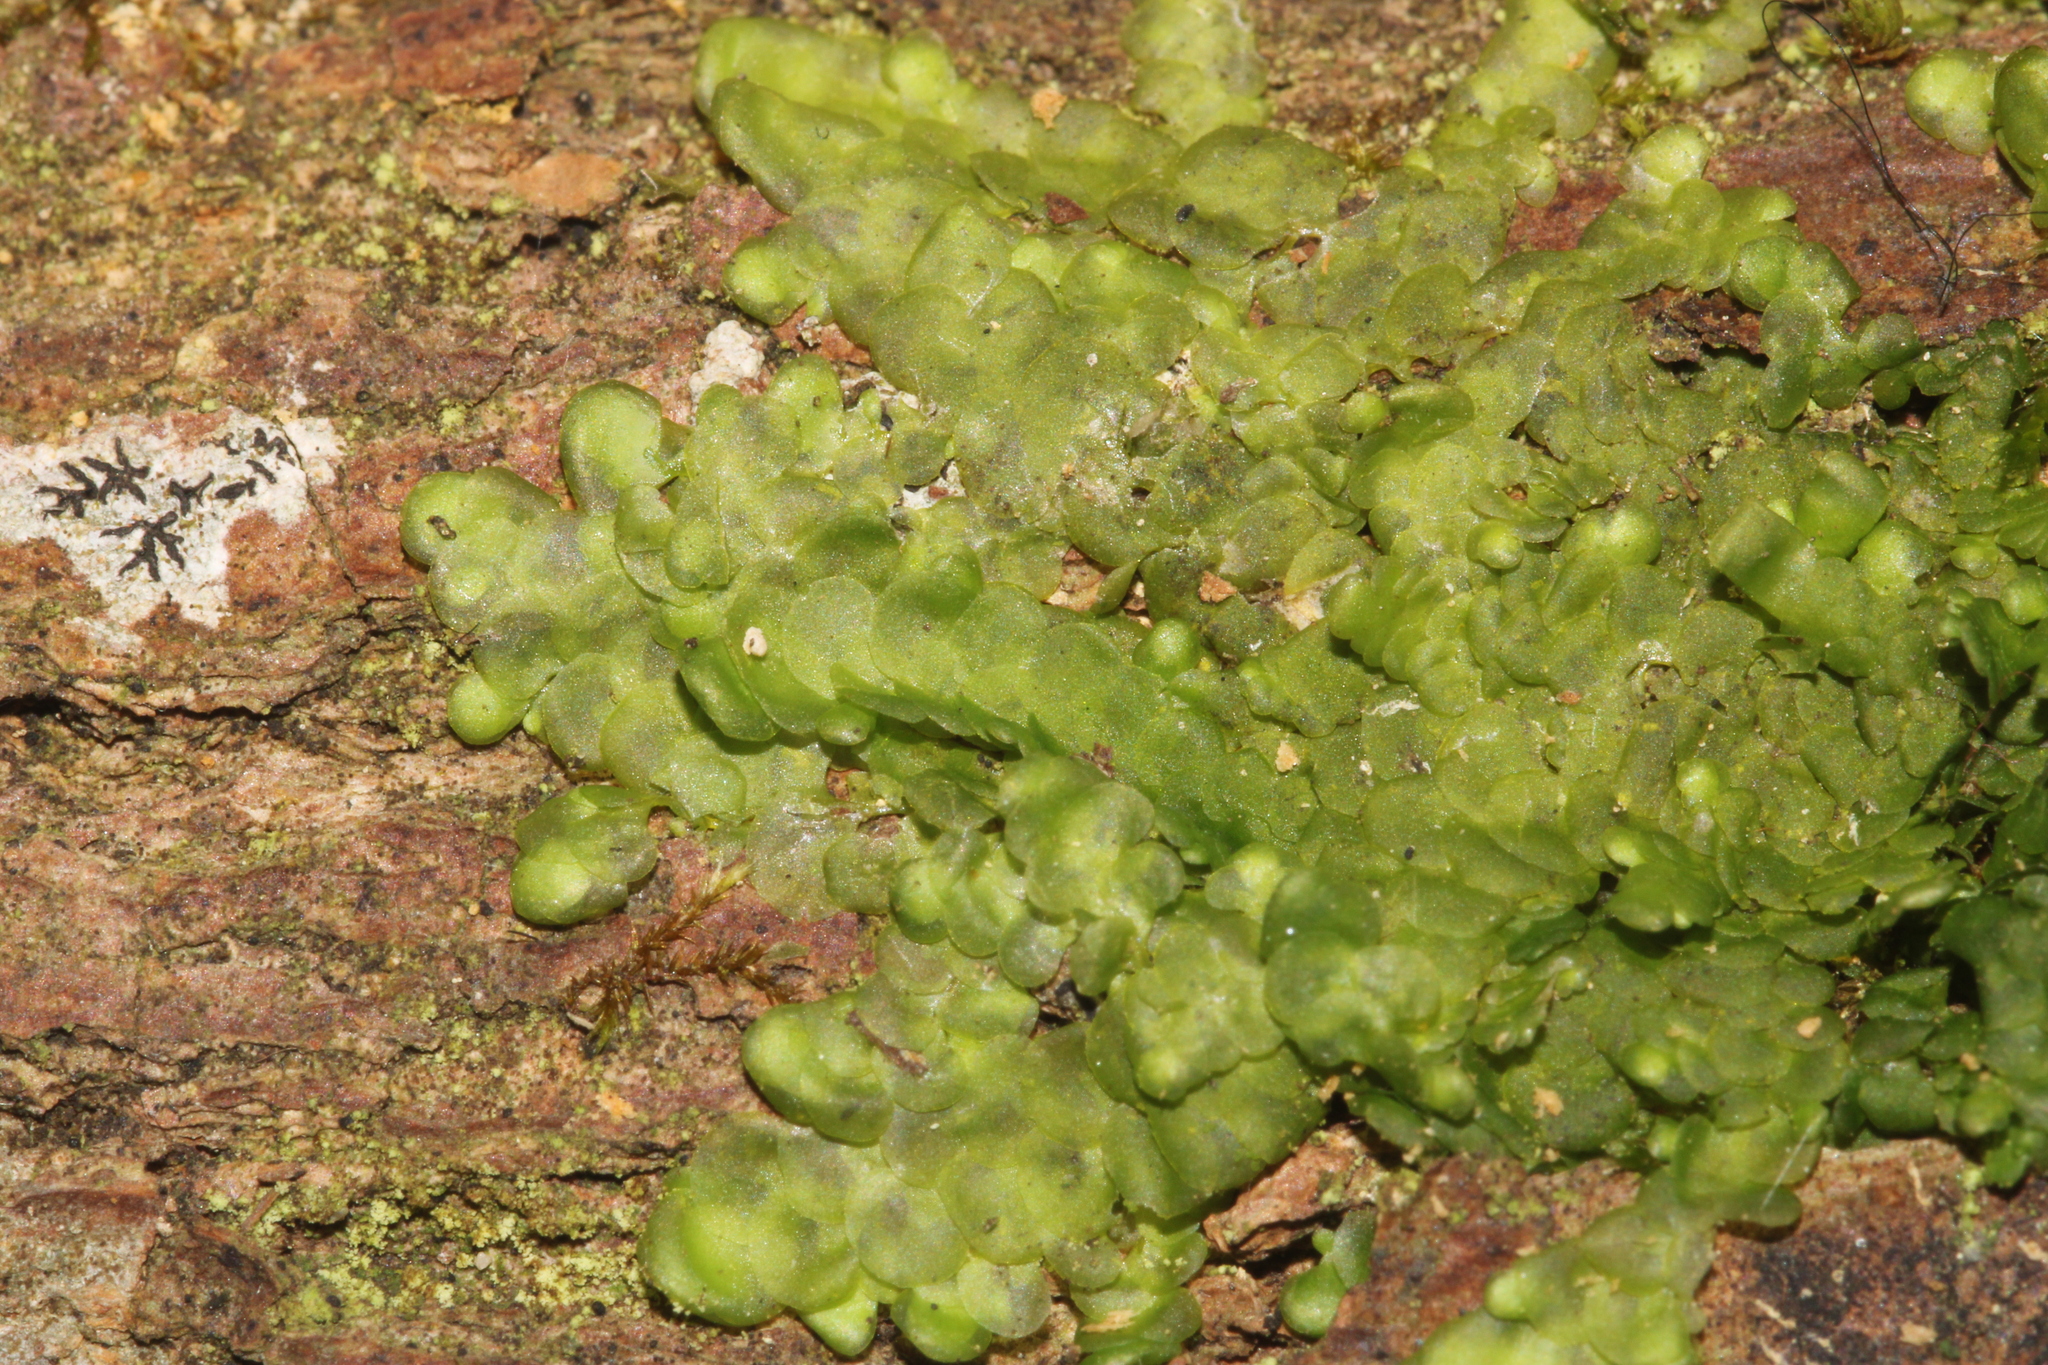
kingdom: Plantae
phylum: Marchantiophyta
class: Jungermanniopsida
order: Porellales
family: Radulaceae
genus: Radula
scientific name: Radula complanata
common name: Flat-leaved scalewort
